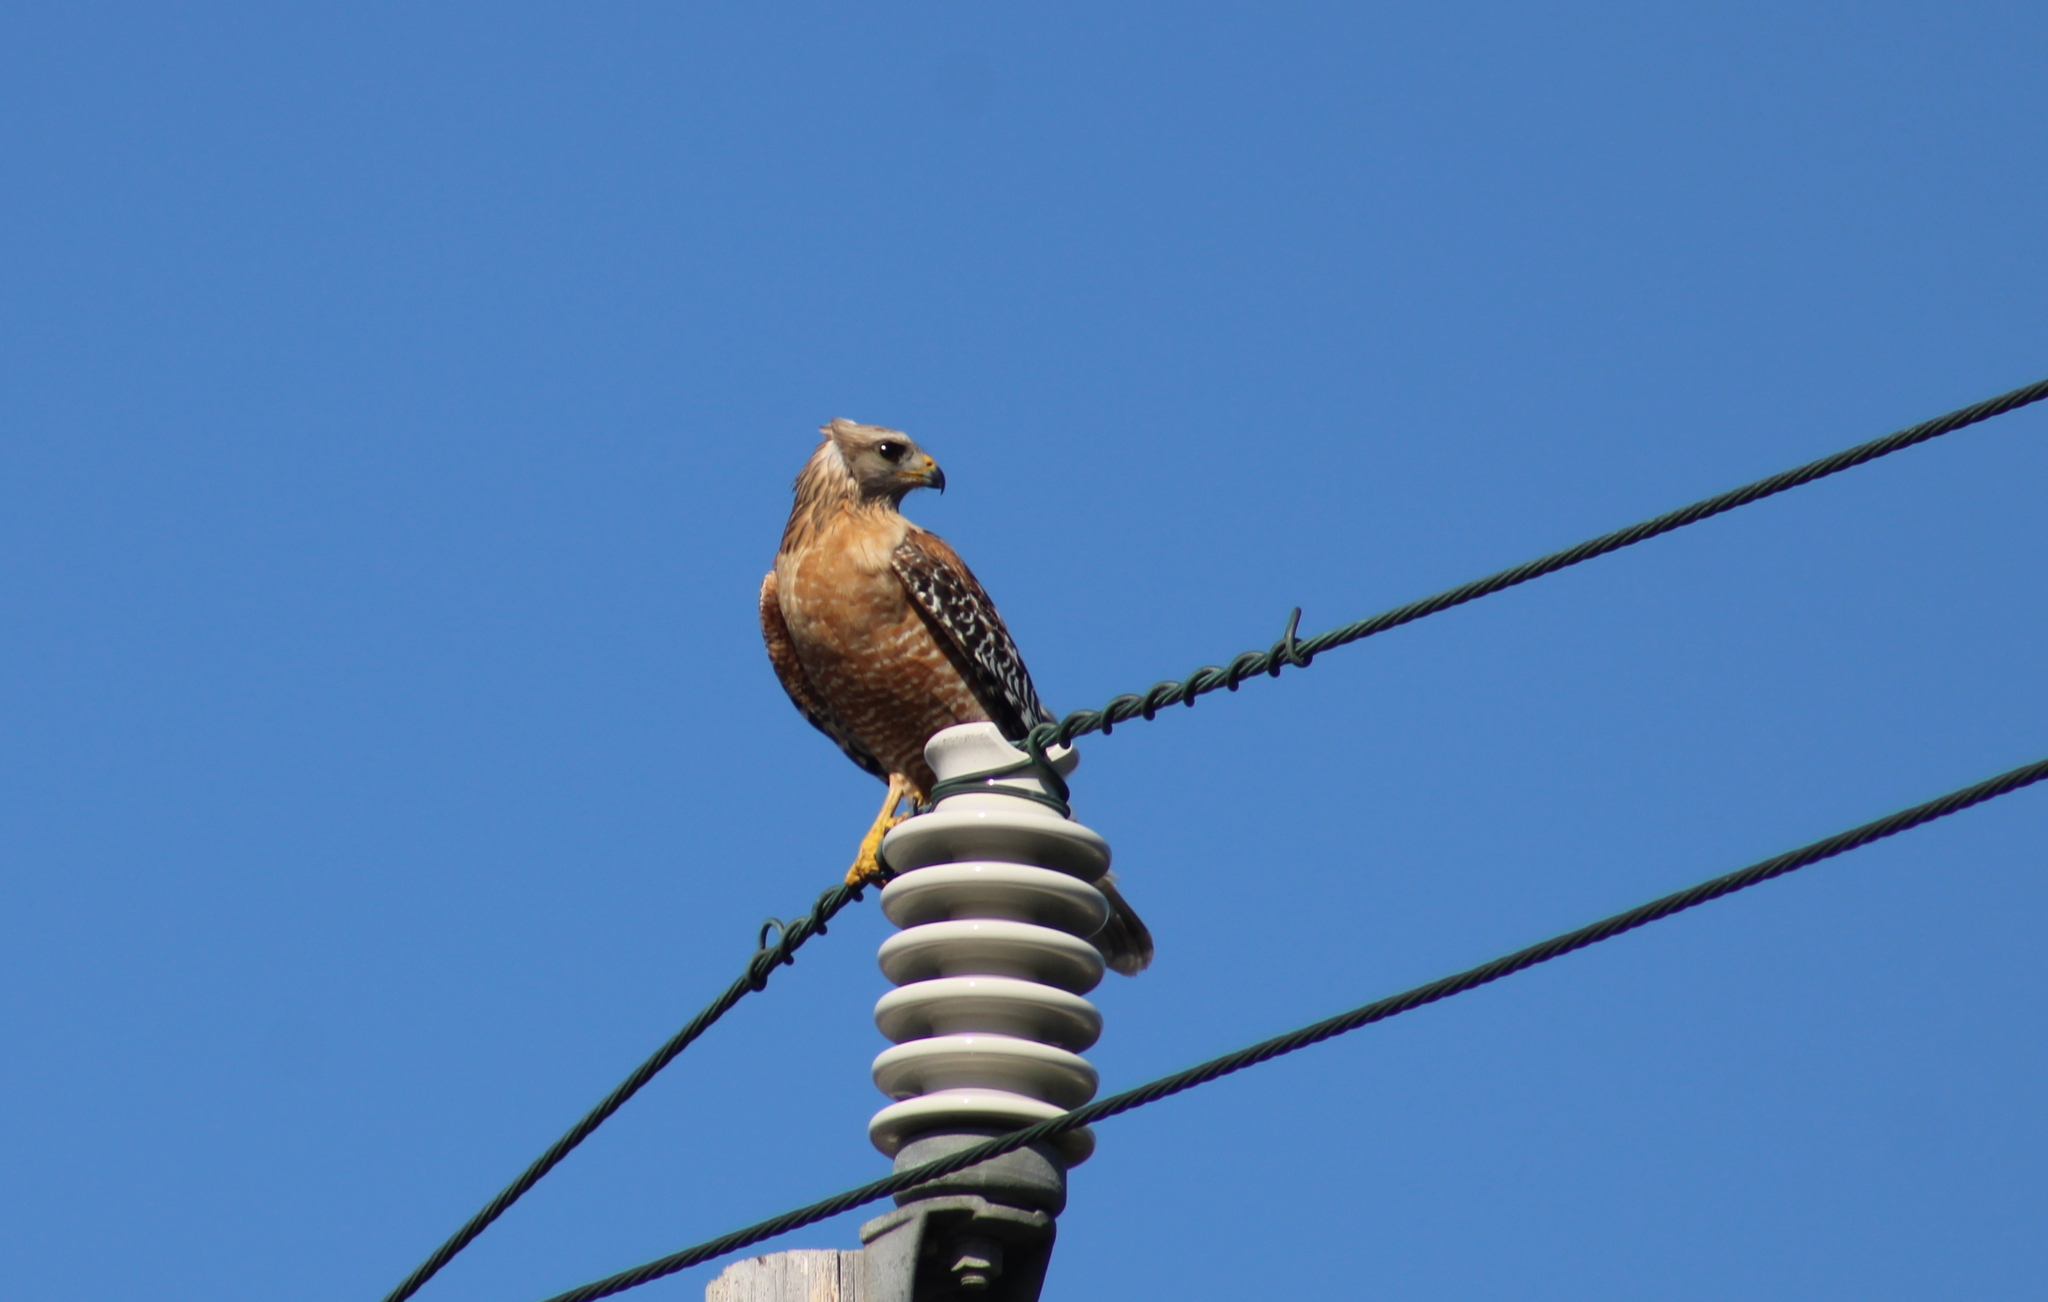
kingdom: Animalia
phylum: Chordata
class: Aves
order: Accipitriformes
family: Accipitridae
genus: Buteo
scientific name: Buteo lineatus
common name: Red-shouldered hawk
